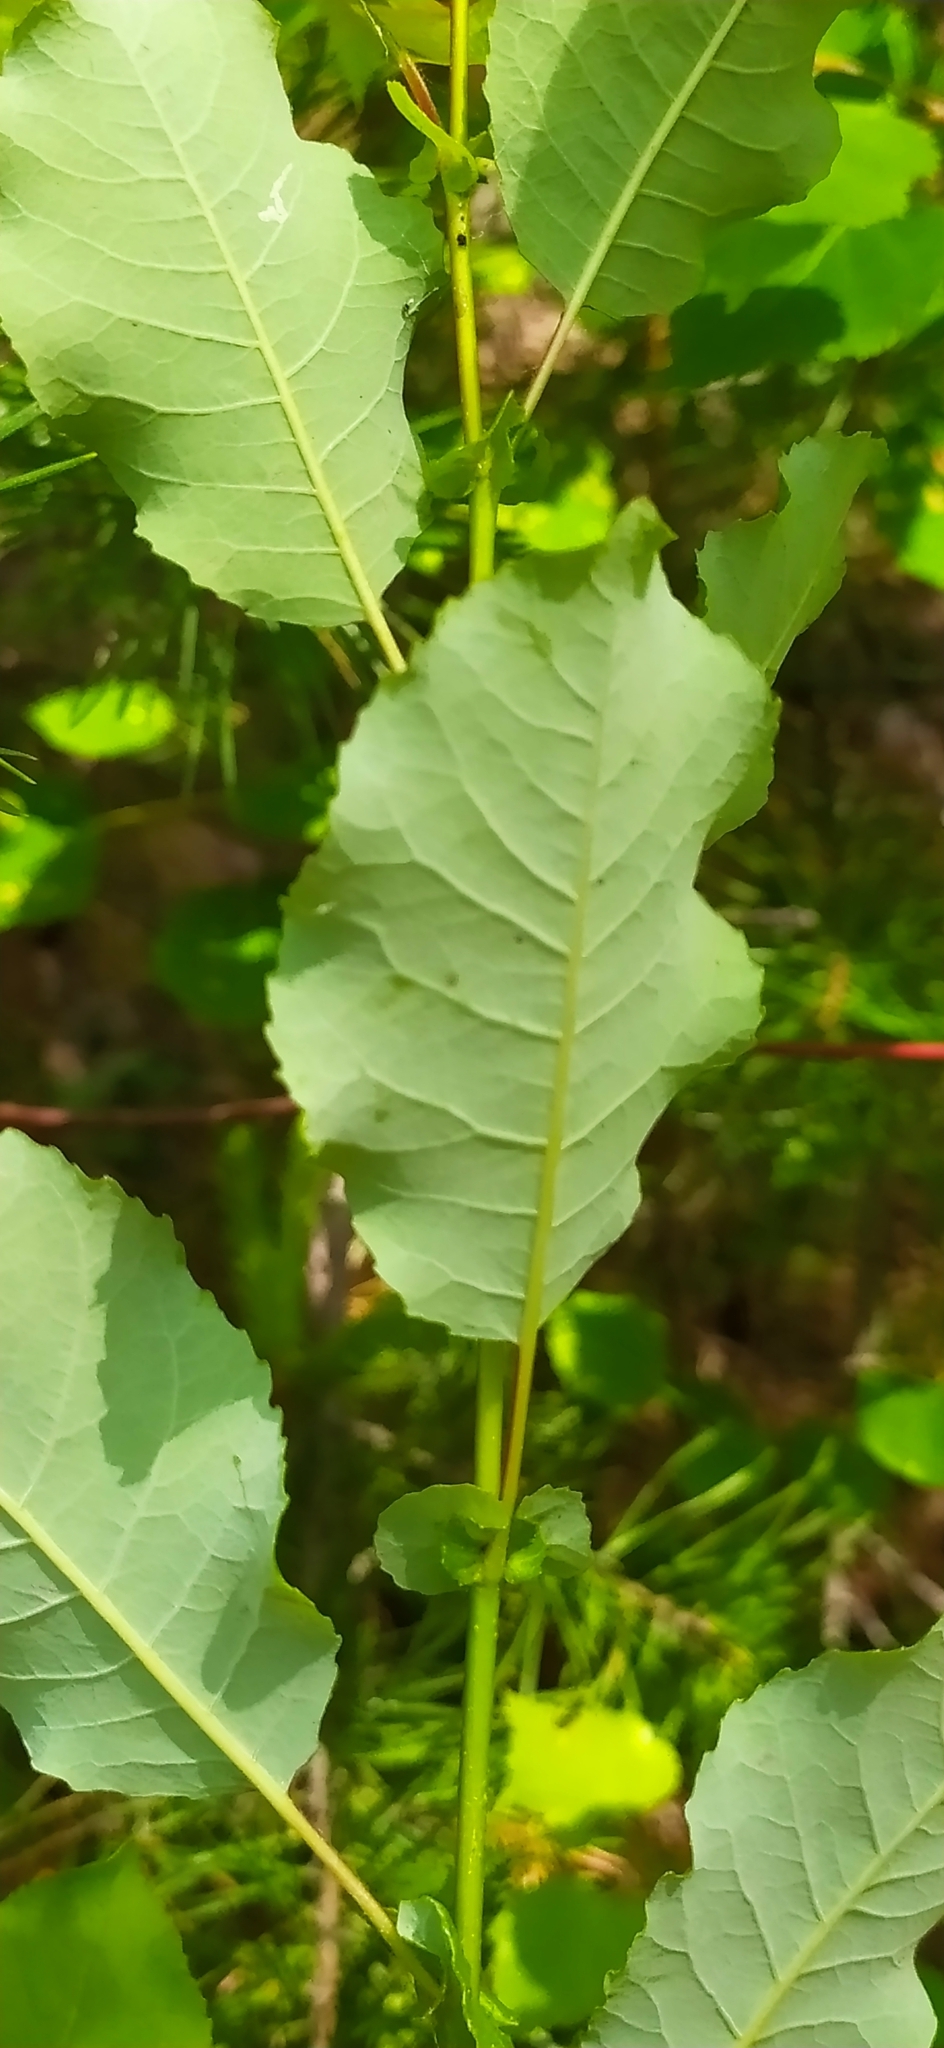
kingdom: Plantae
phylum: Tracheophyta
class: Magnoliopsida
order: Malpighiales
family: Salicaceae
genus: Salix
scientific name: Salix pyrolifolia
